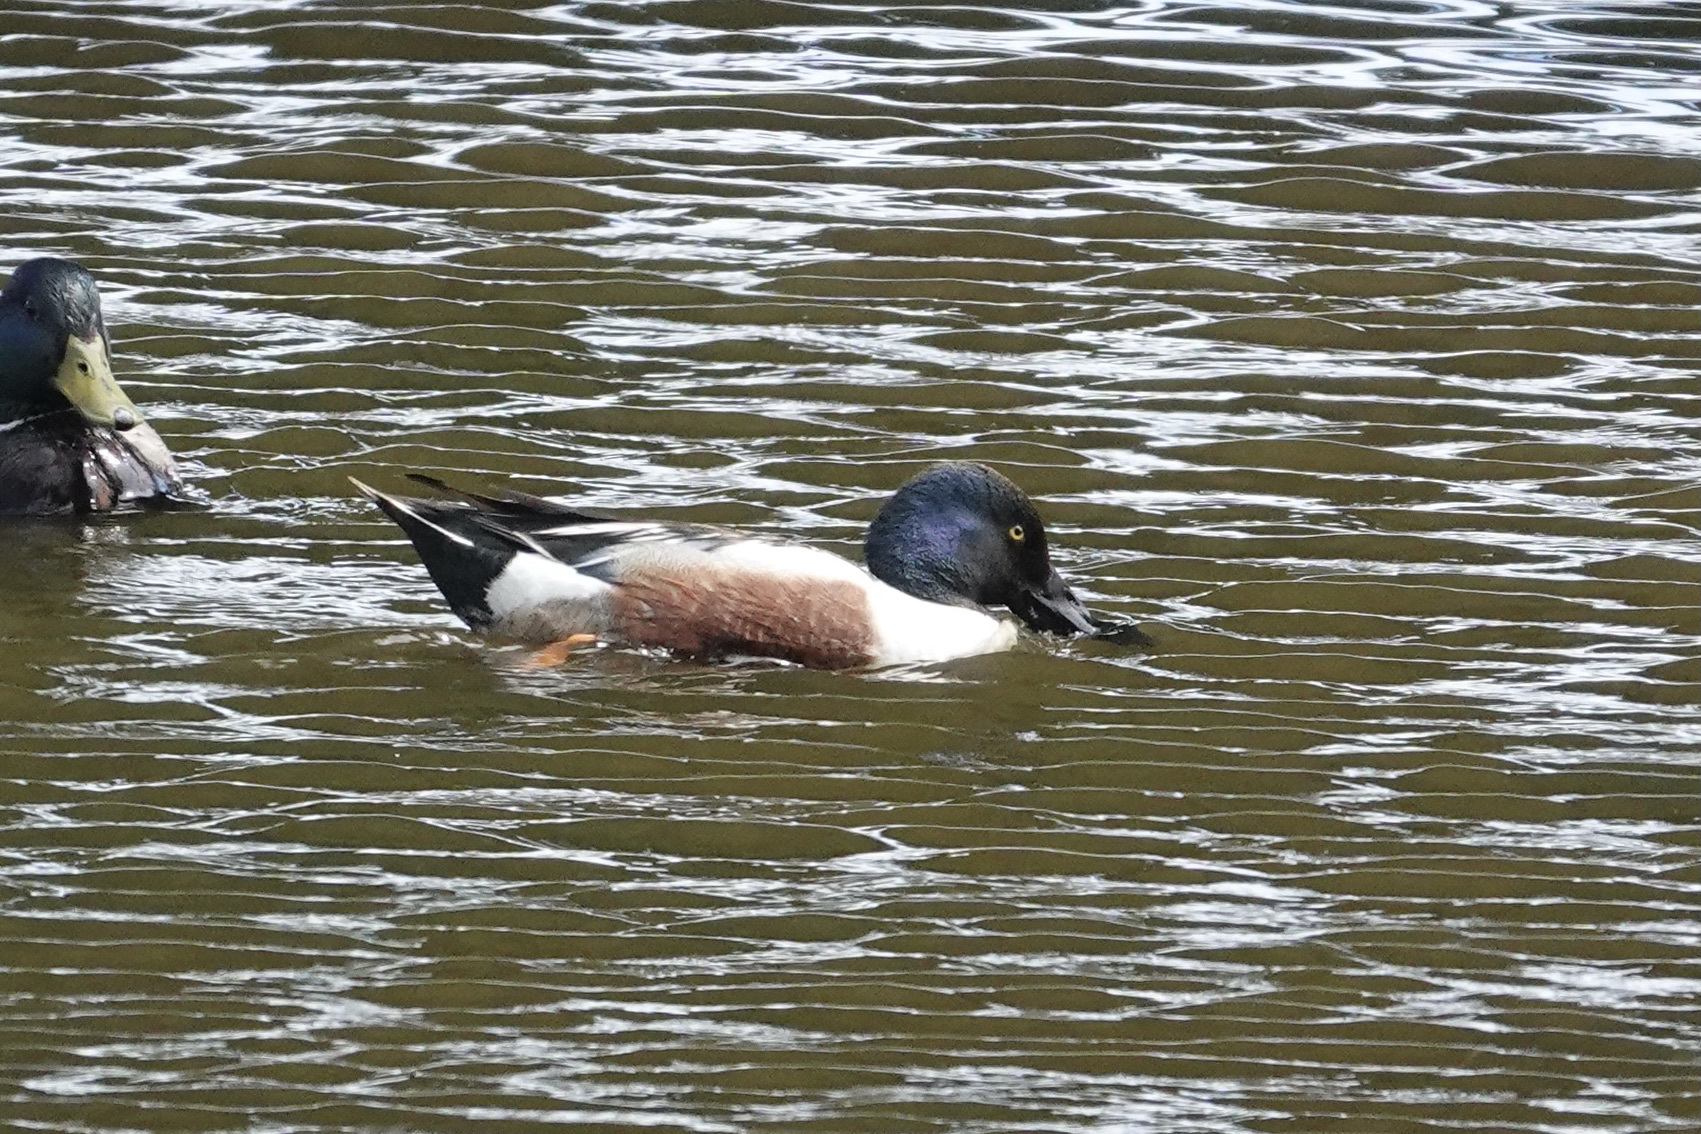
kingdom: Animalia
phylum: Chordata
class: Aves
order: Anseriformes
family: Anatidae
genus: Spatula
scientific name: Spatula clypeata
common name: Northern shoveler
